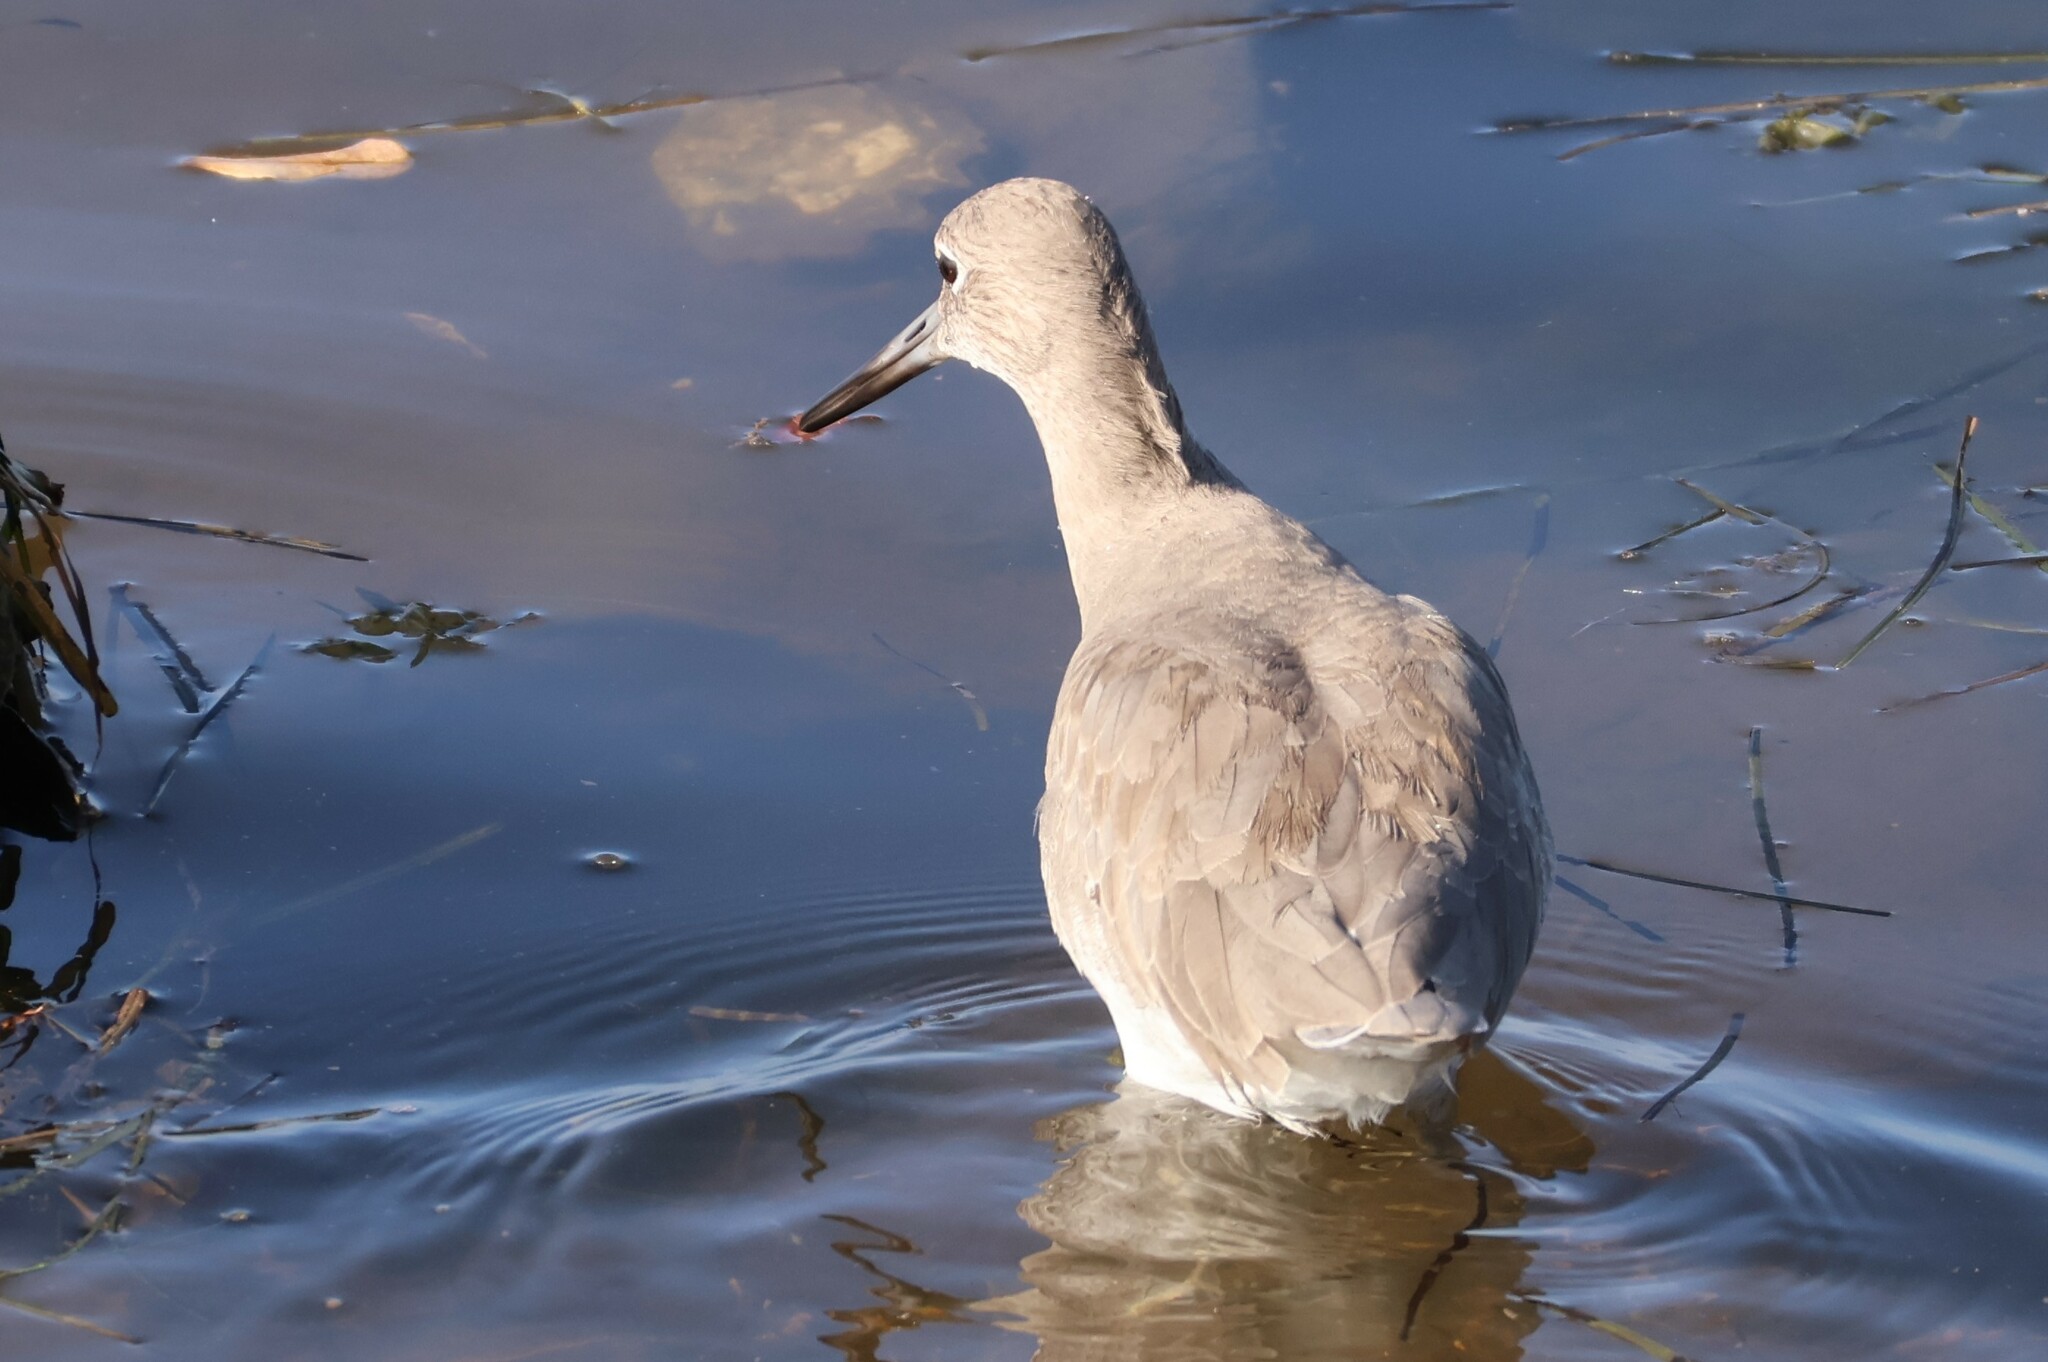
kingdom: Animalia
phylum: Chordata
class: Aves
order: Charadriiformes
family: Scolopacidae
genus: Tringa
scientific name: Tringa semipalmata
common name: Willet
